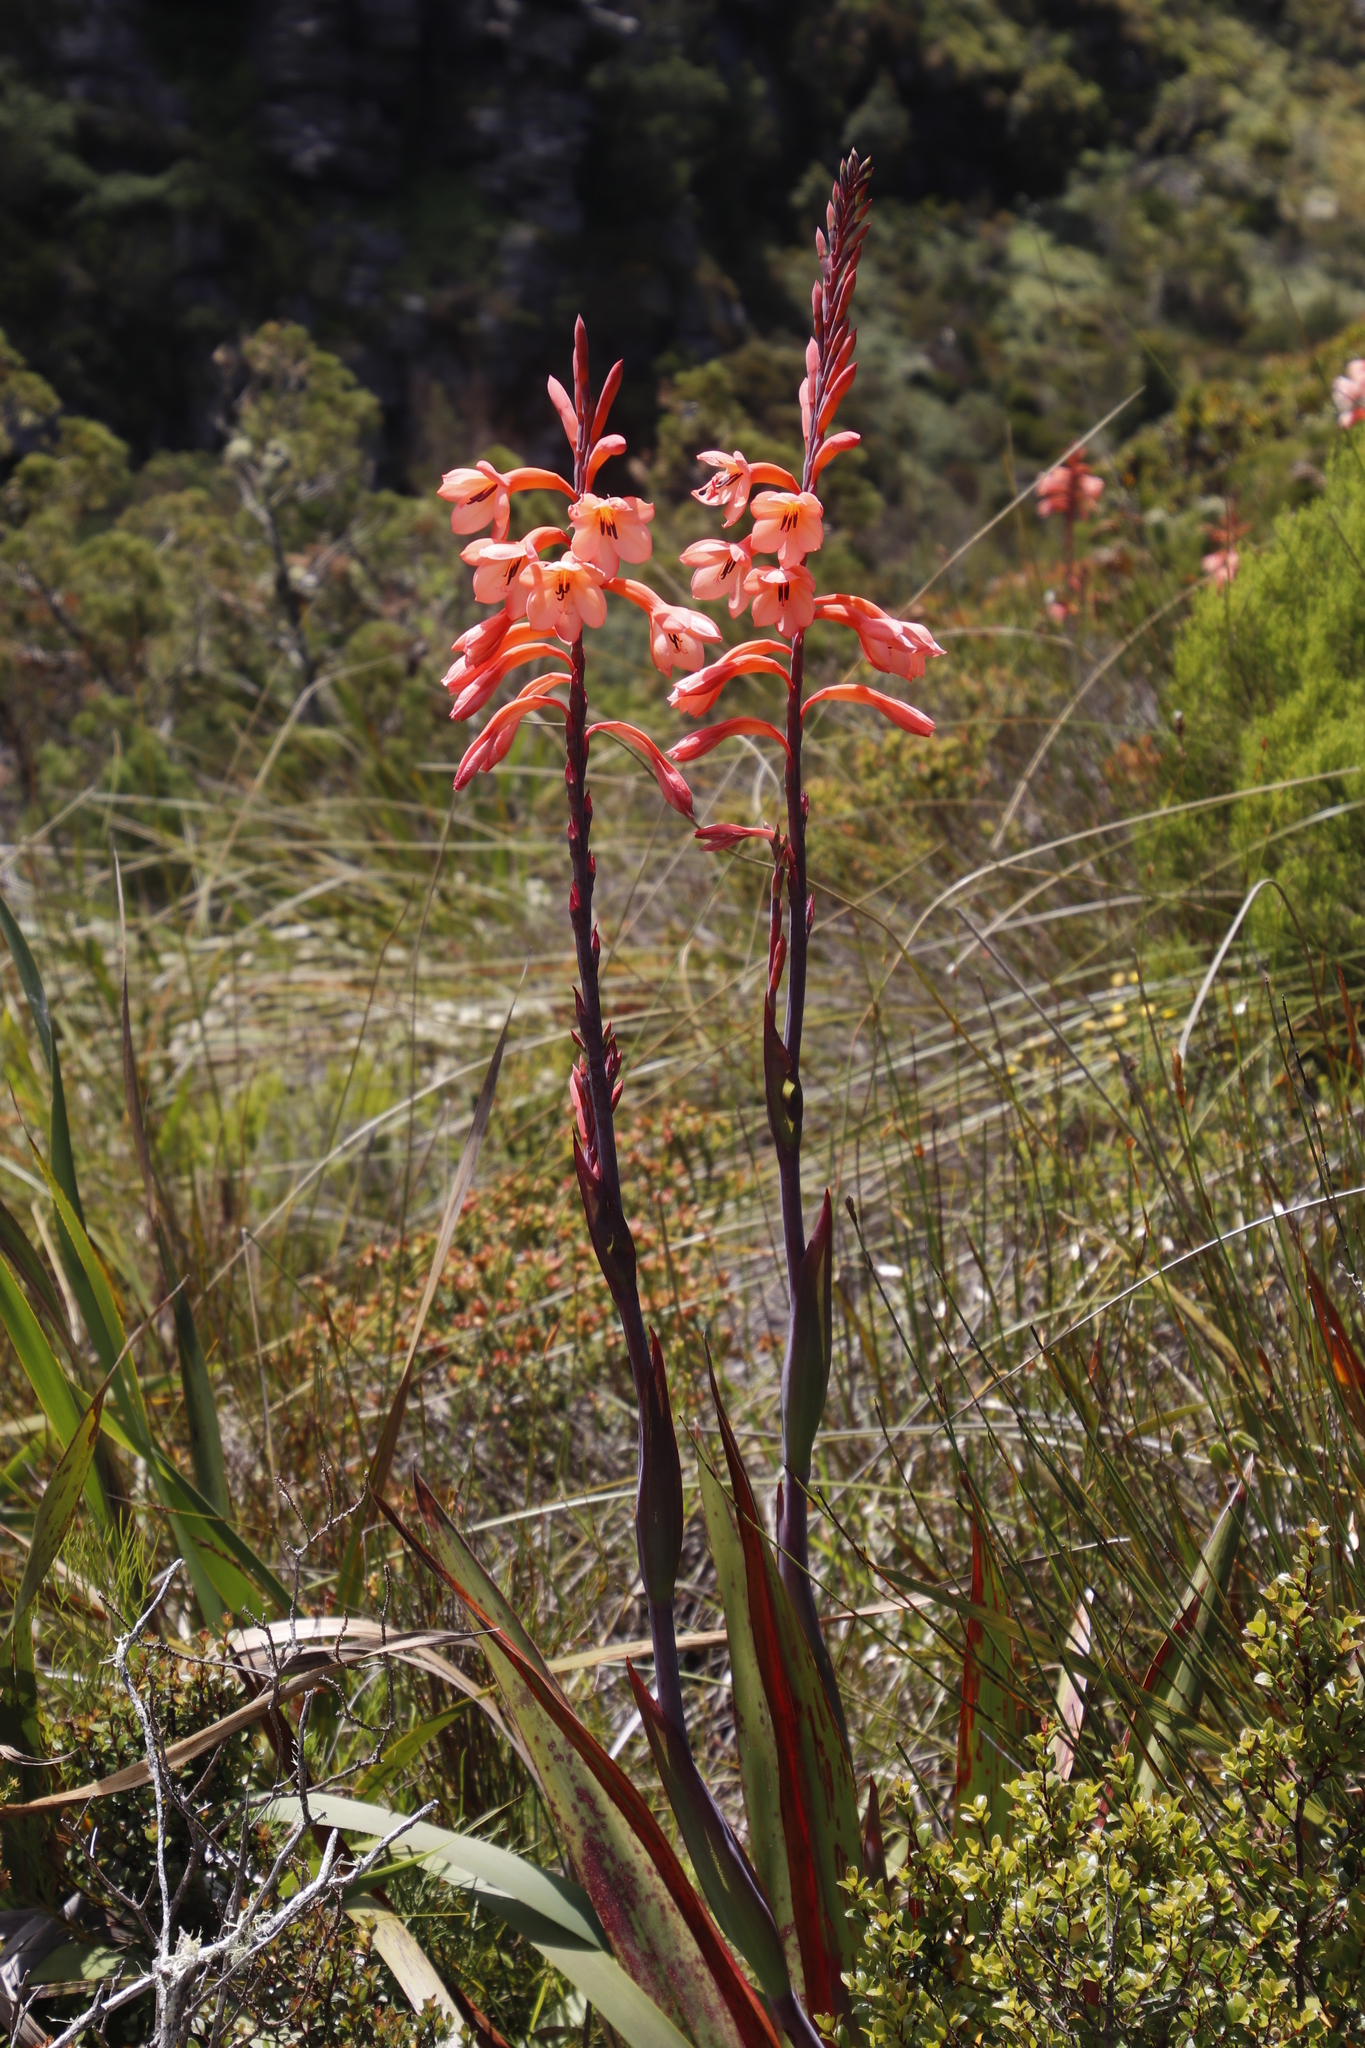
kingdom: Plantae
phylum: Tracheophyta
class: Liliopsida
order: Asparagales
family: Iridaceae
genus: Watsonia
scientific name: Watsonia tabularis
